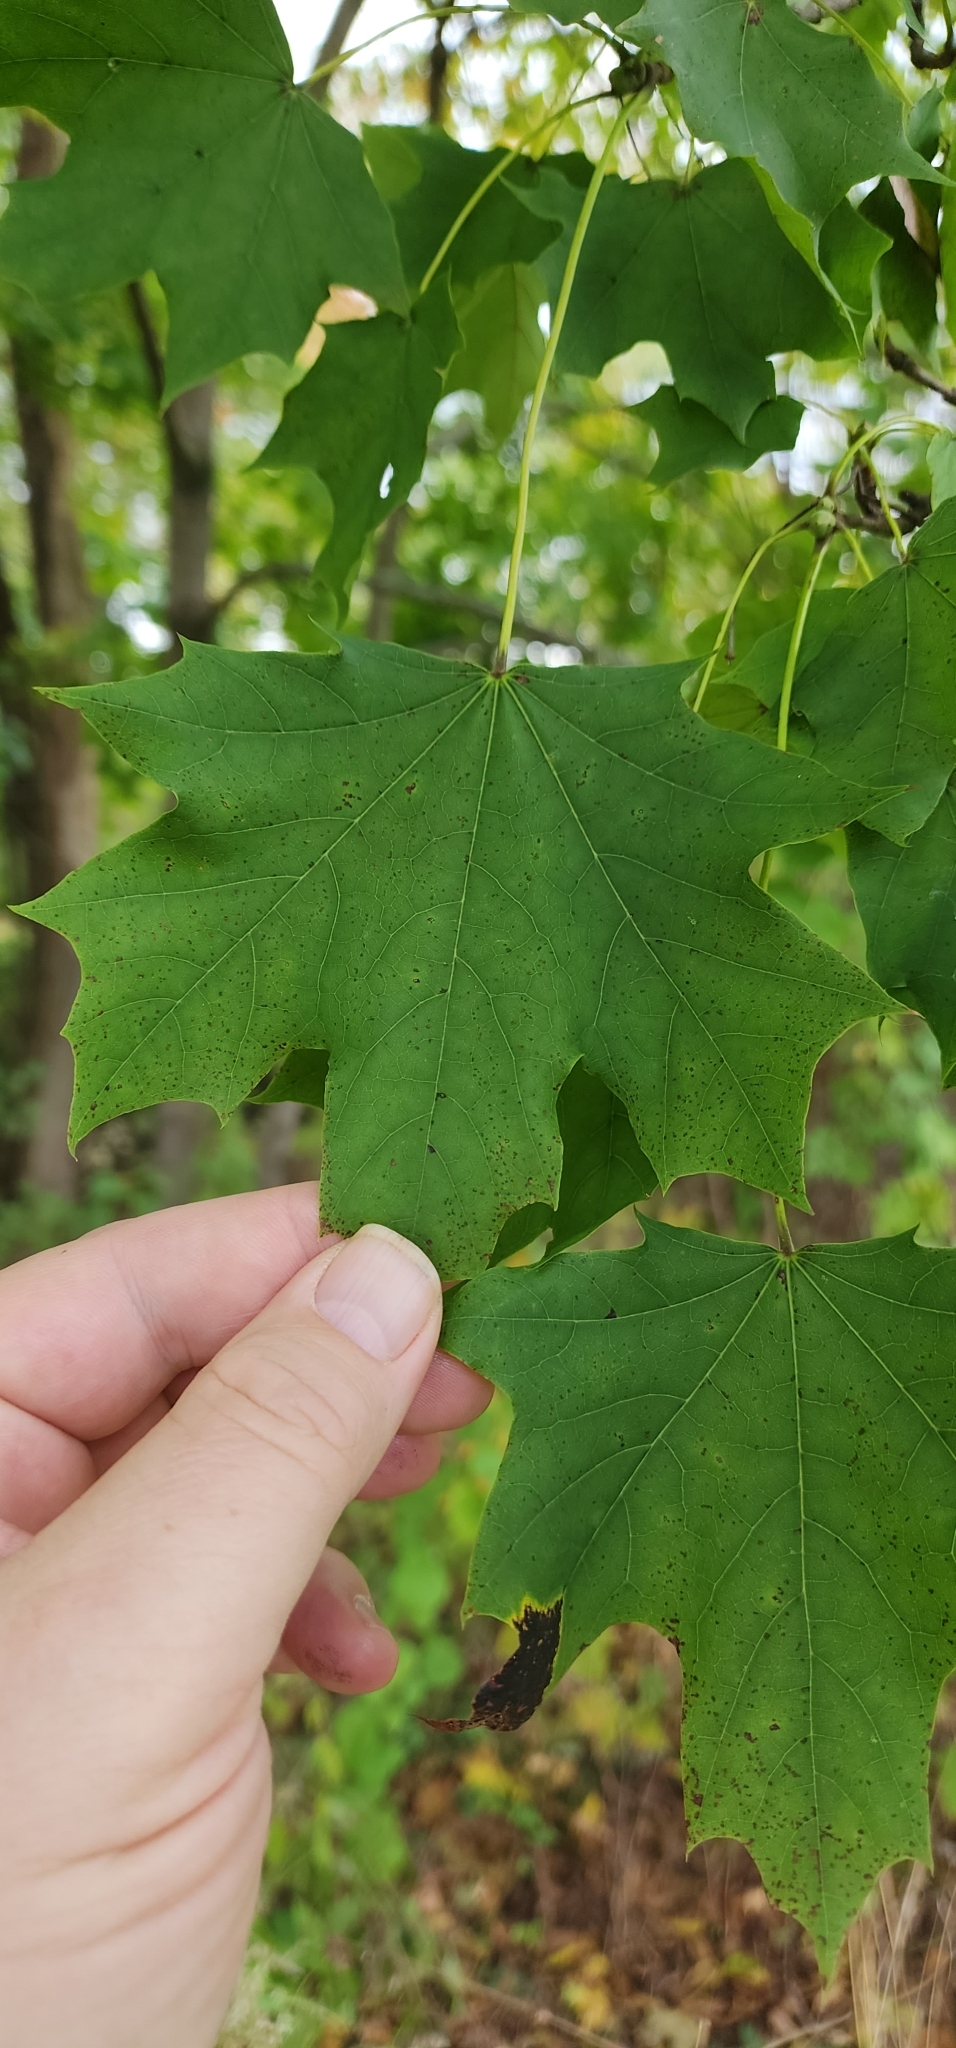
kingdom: Plantae
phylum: Tracheophyta
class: Magnoliopsida
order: Sapindales
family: Sapindaceae
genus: Acer
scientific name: Acer saccharum
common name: Sugar maple
